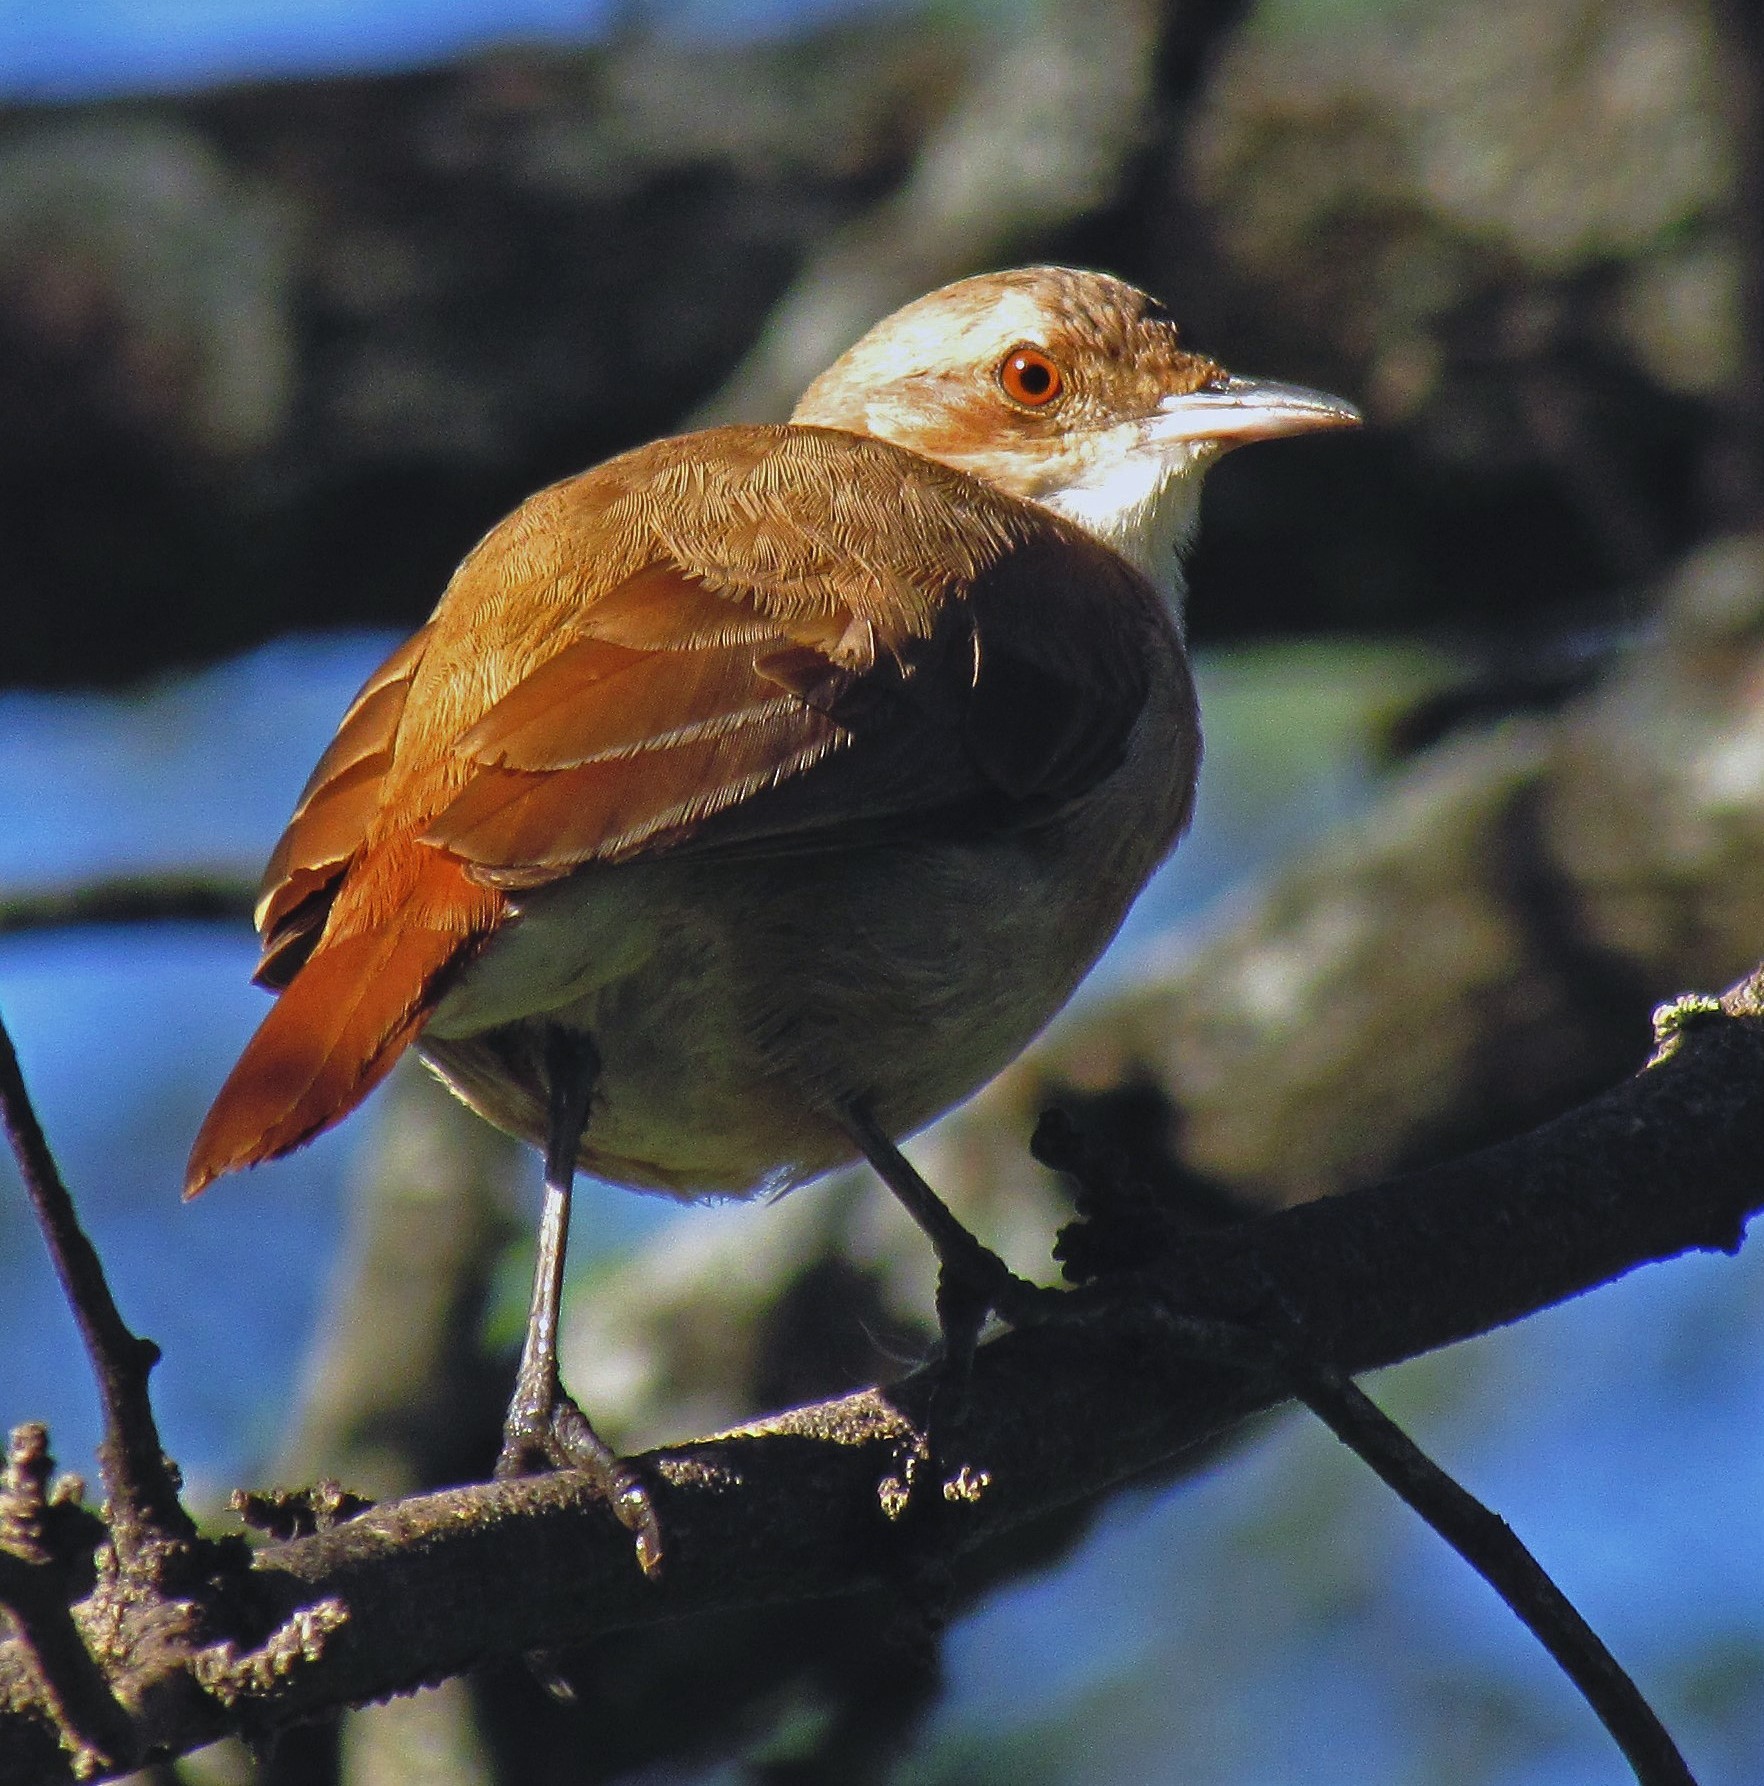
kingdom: Animalia
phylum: Chordata
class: Aves
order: Passeriformes
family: Furnariidae
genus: Furnarius
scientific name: Furnarius rufus
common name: Rufous hornero
